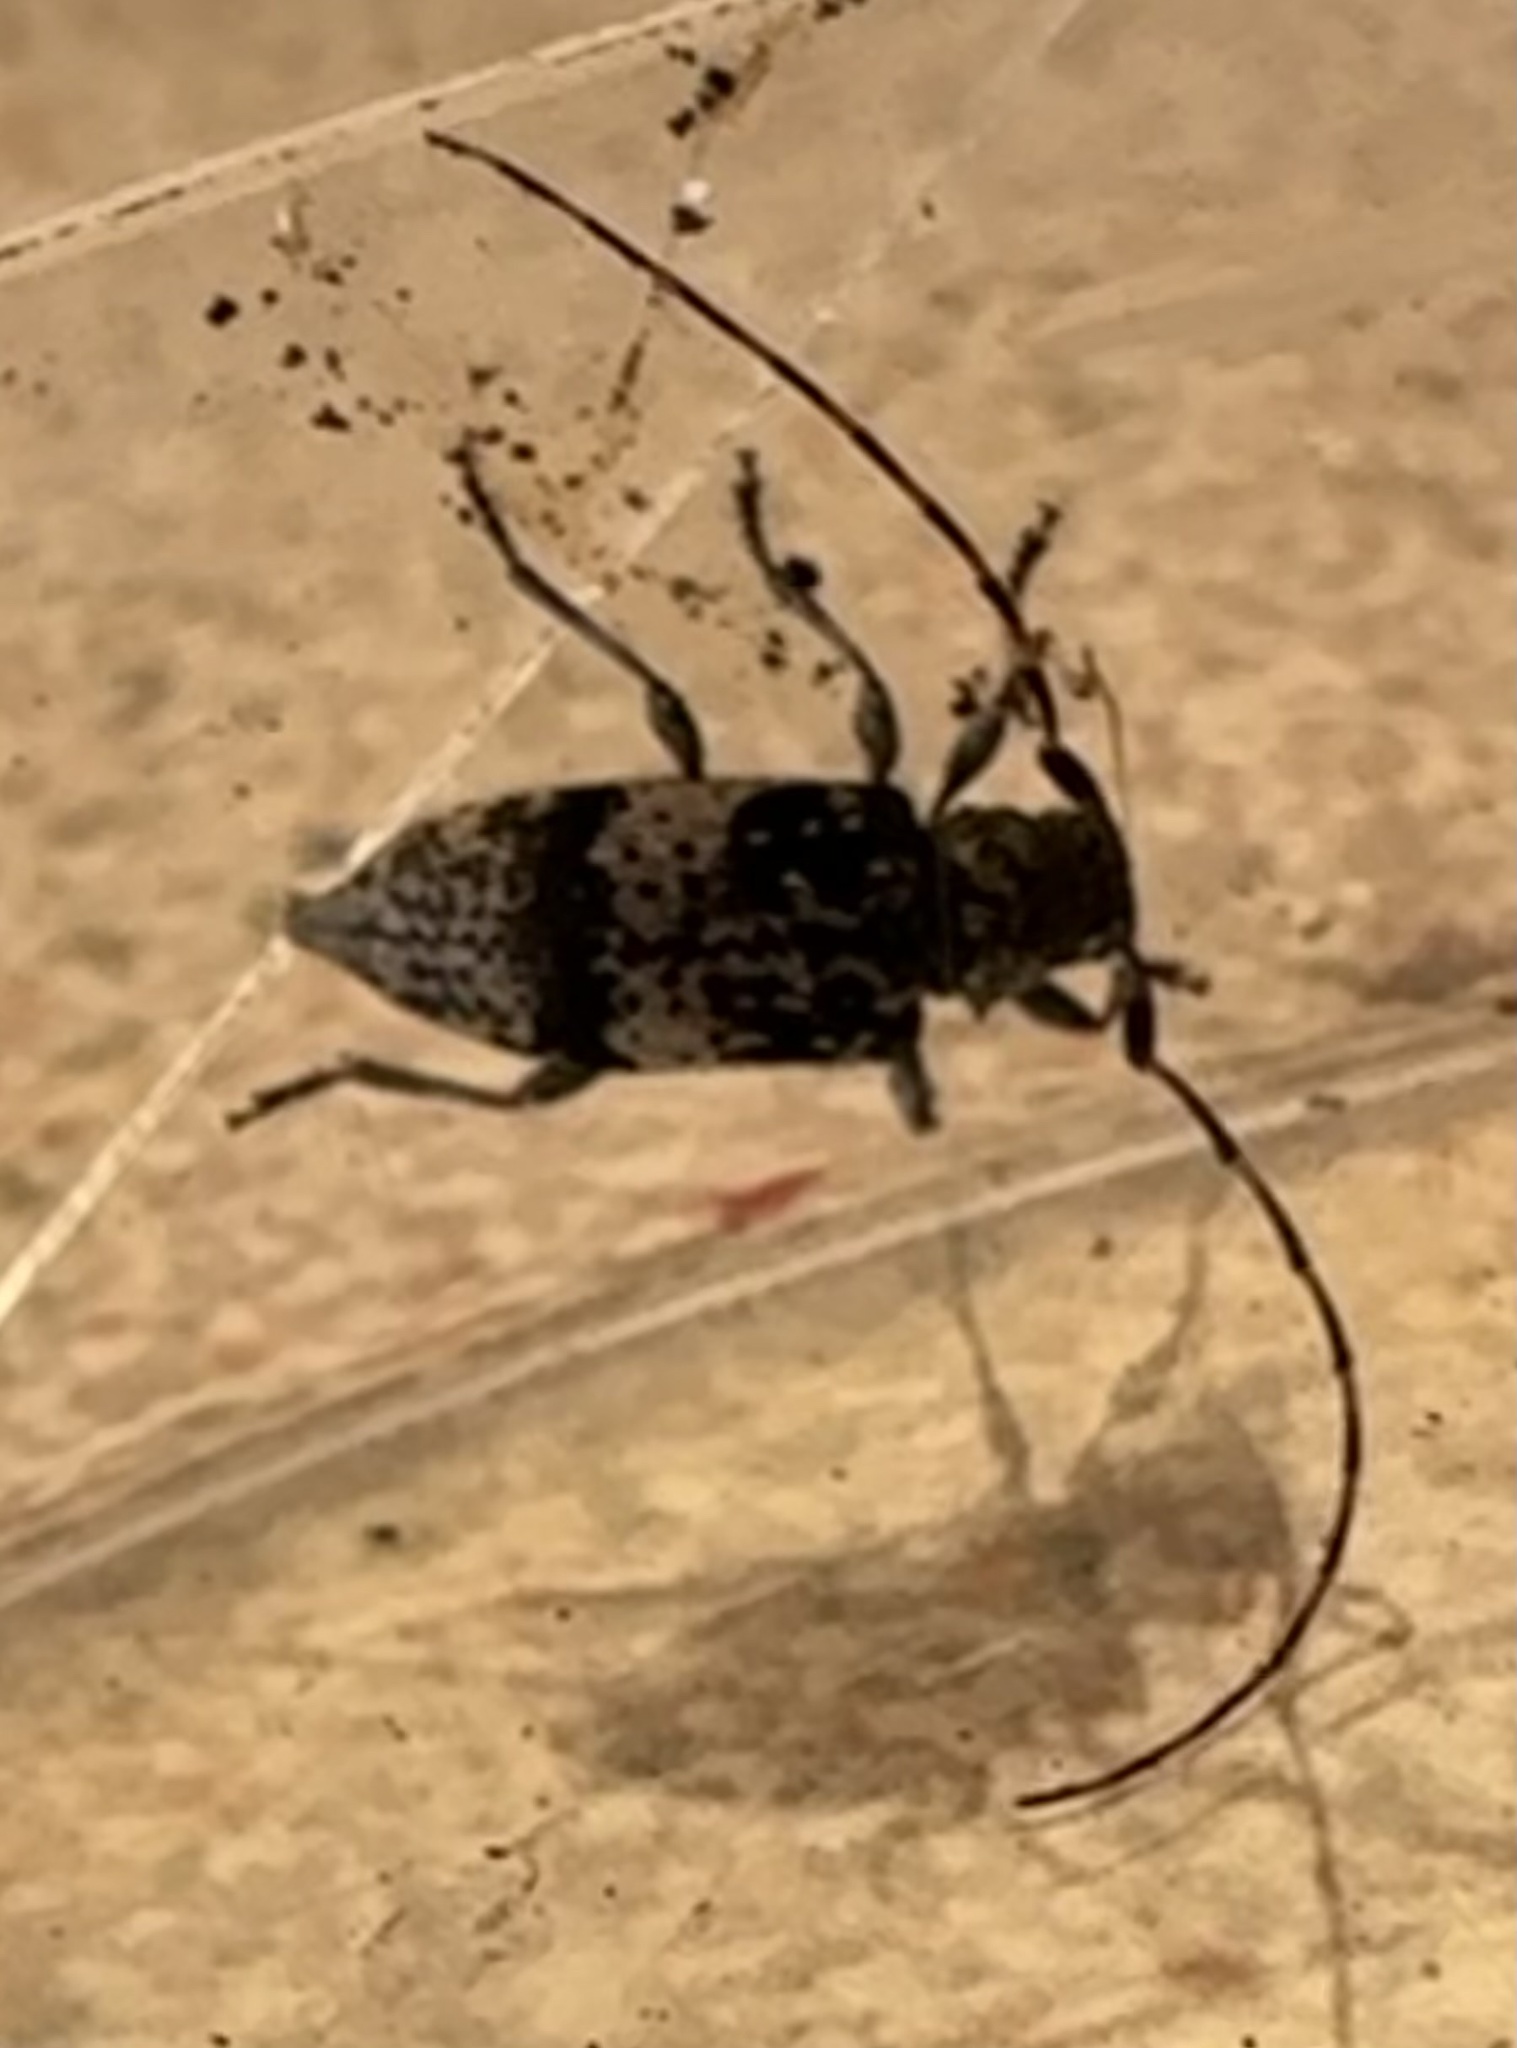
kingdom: Animalia
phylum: Arthropoda
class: Insecta
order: Coleoptera
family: Cerambycidae
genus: Leiopus
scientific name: Leiopus nebulosus
